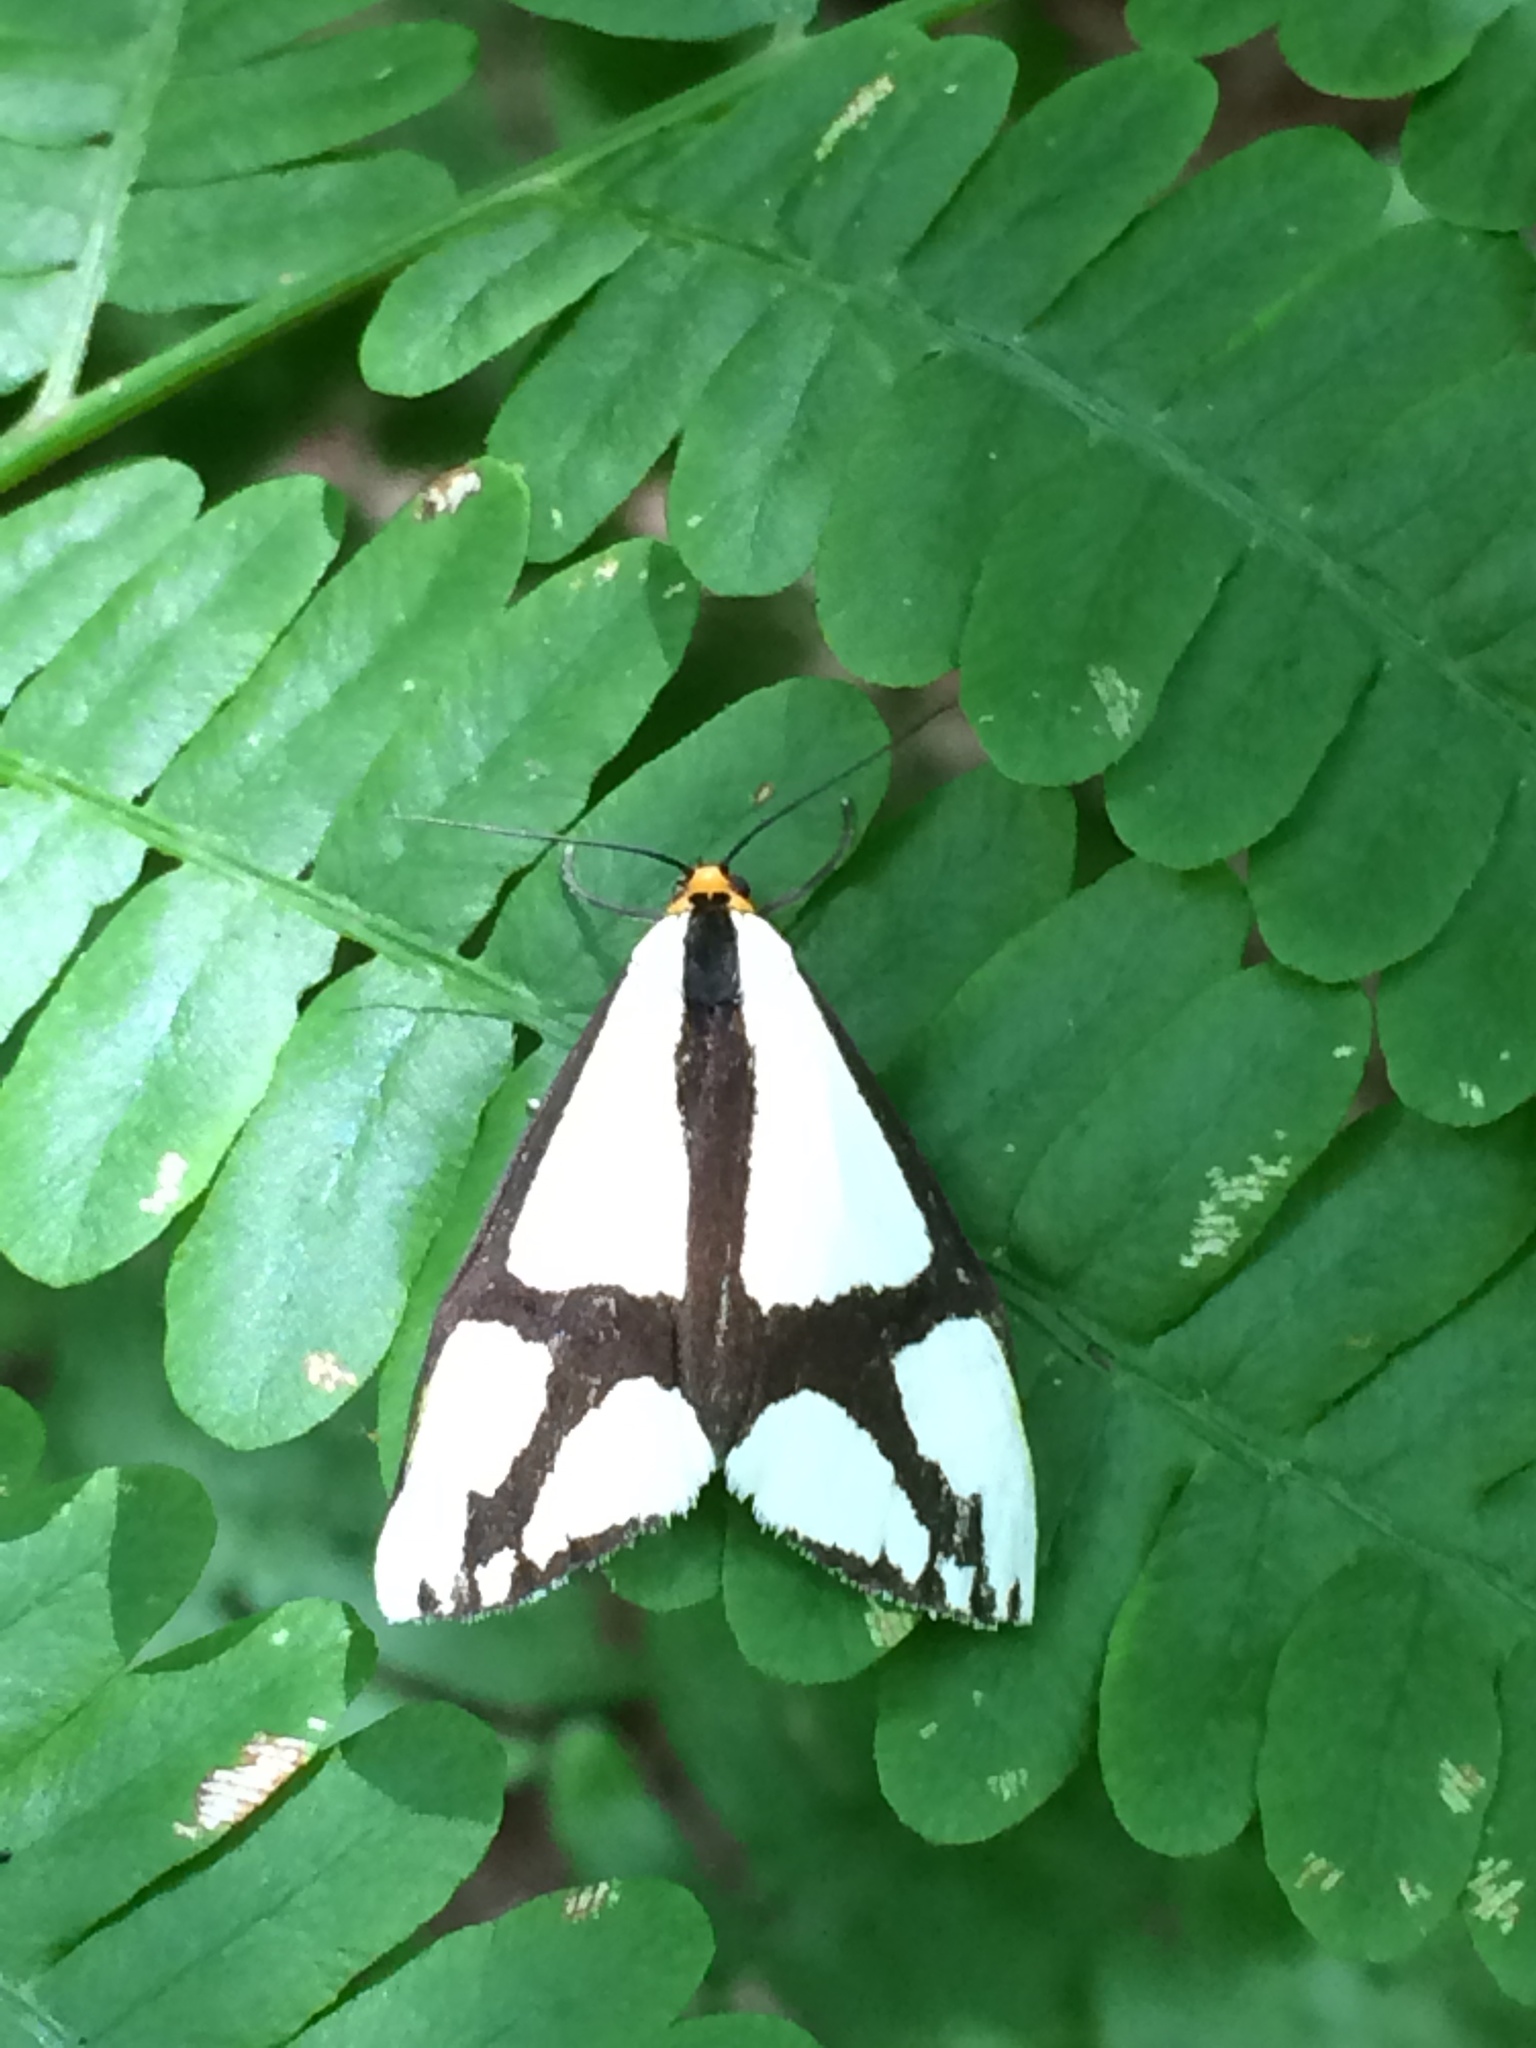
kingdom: Animalia
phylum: Arthropoda
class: Insecta
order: Lepidoptera
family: Erebidae
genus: Haploa
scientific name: Haploa contigua
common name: Neighbor moth
